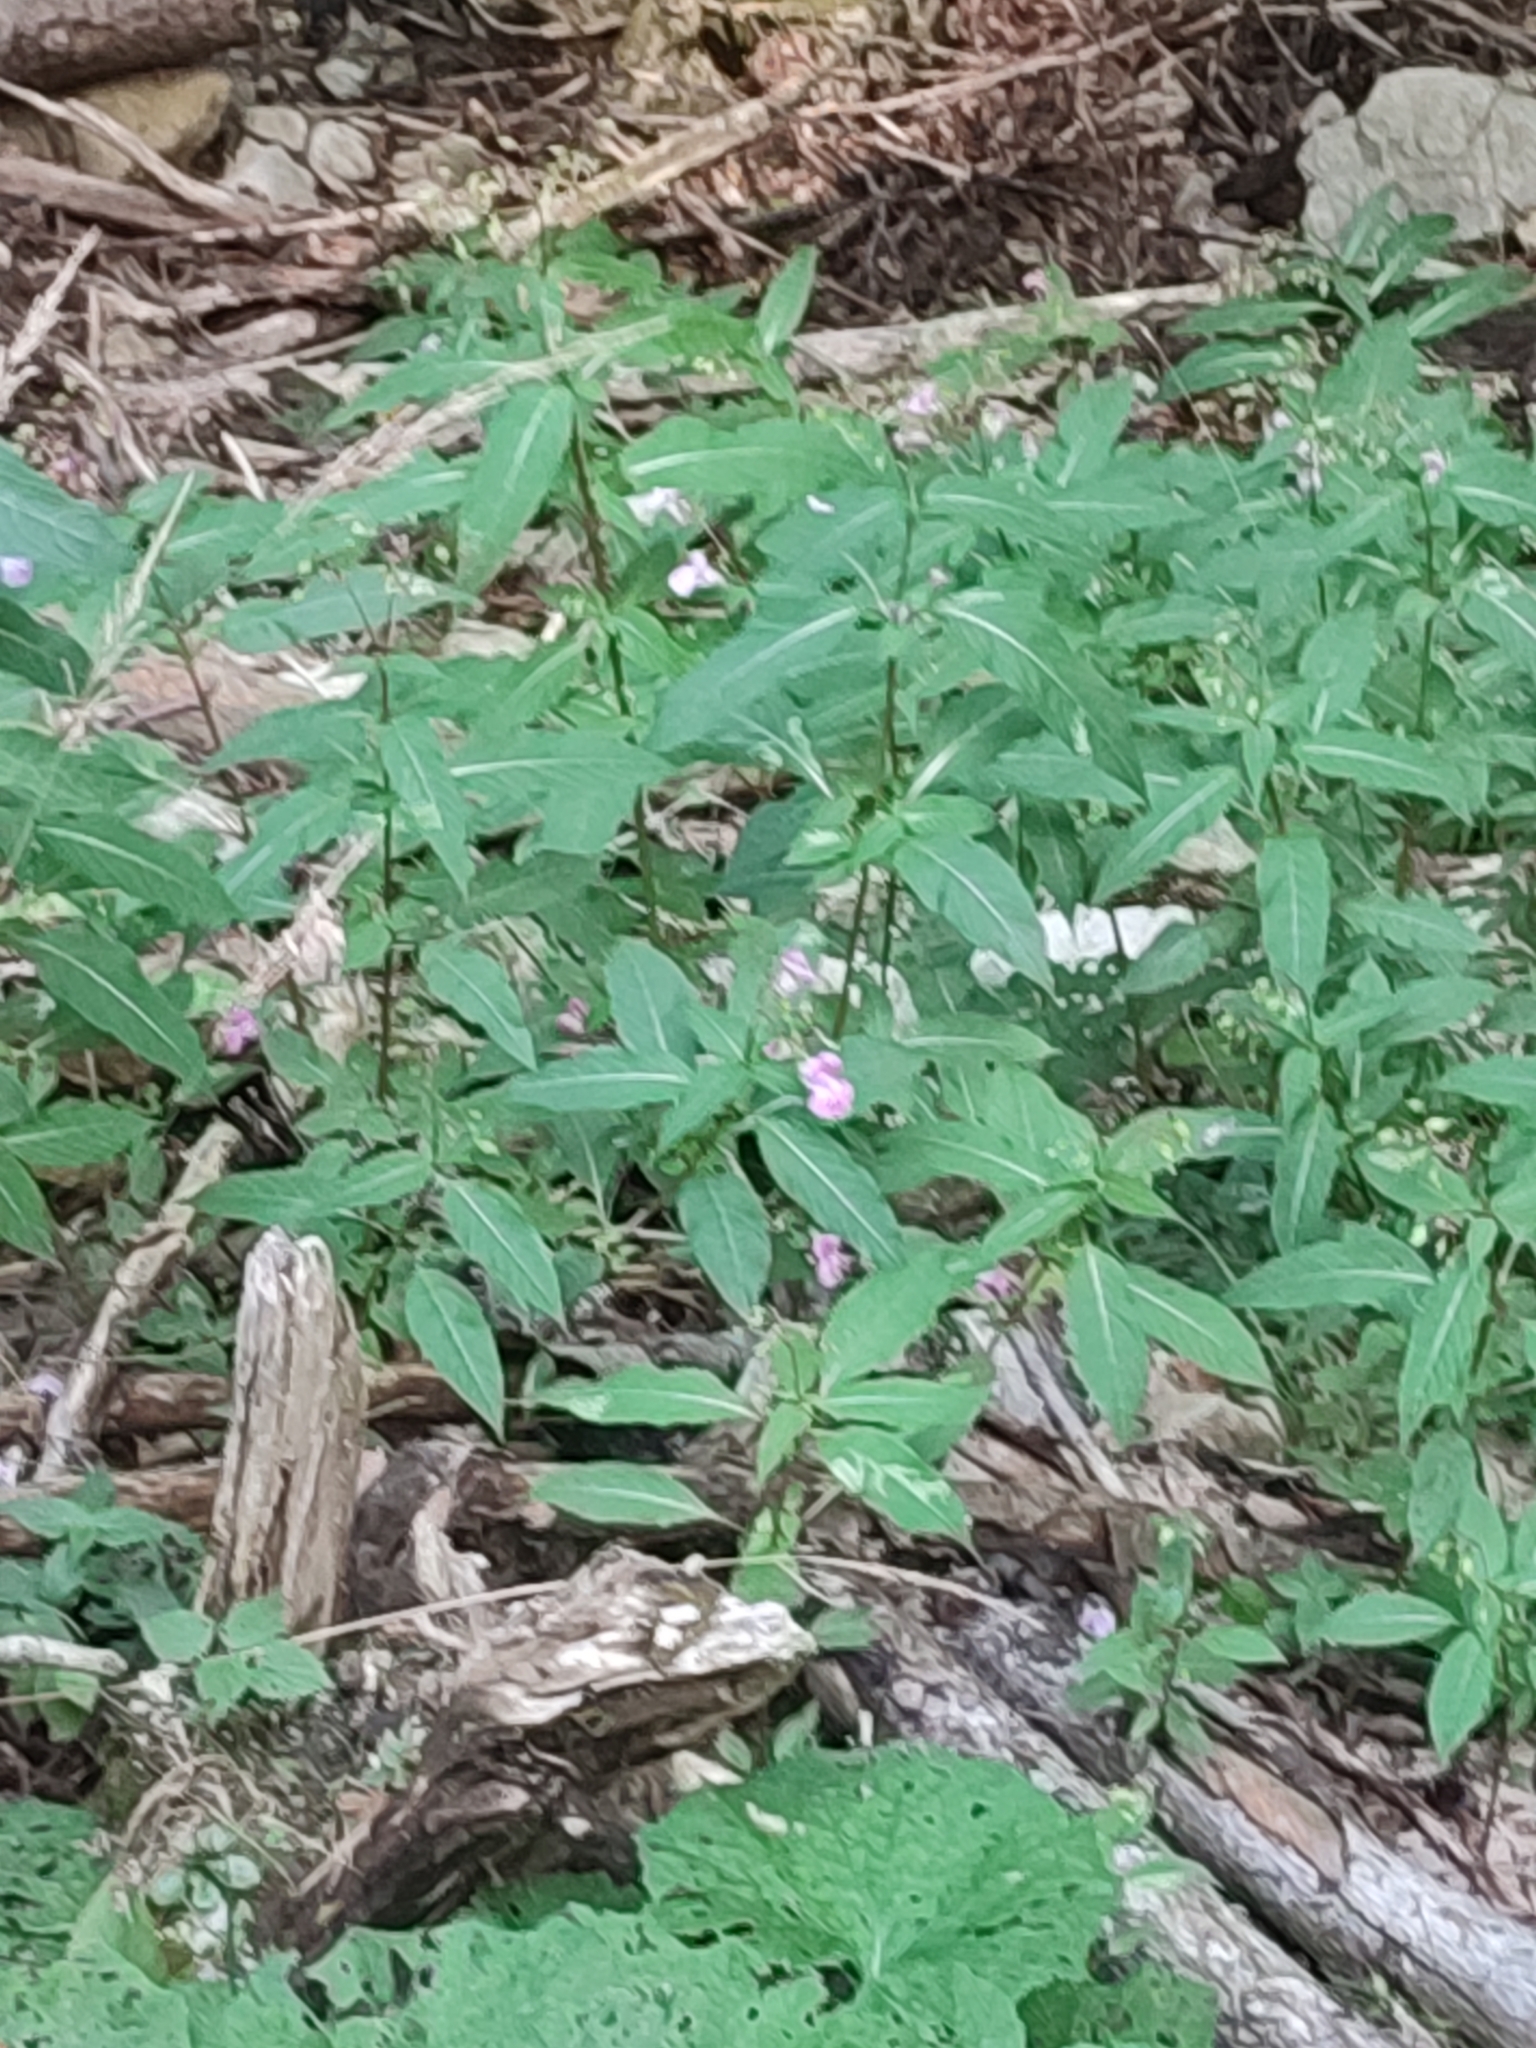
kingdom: Plantae
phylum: Tracheophyta
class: Magnoliopsida
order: Ericales
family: Balsaminaceae
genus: Impatiens
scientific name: Impatiens glandulifera
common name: Himalayan balsam
